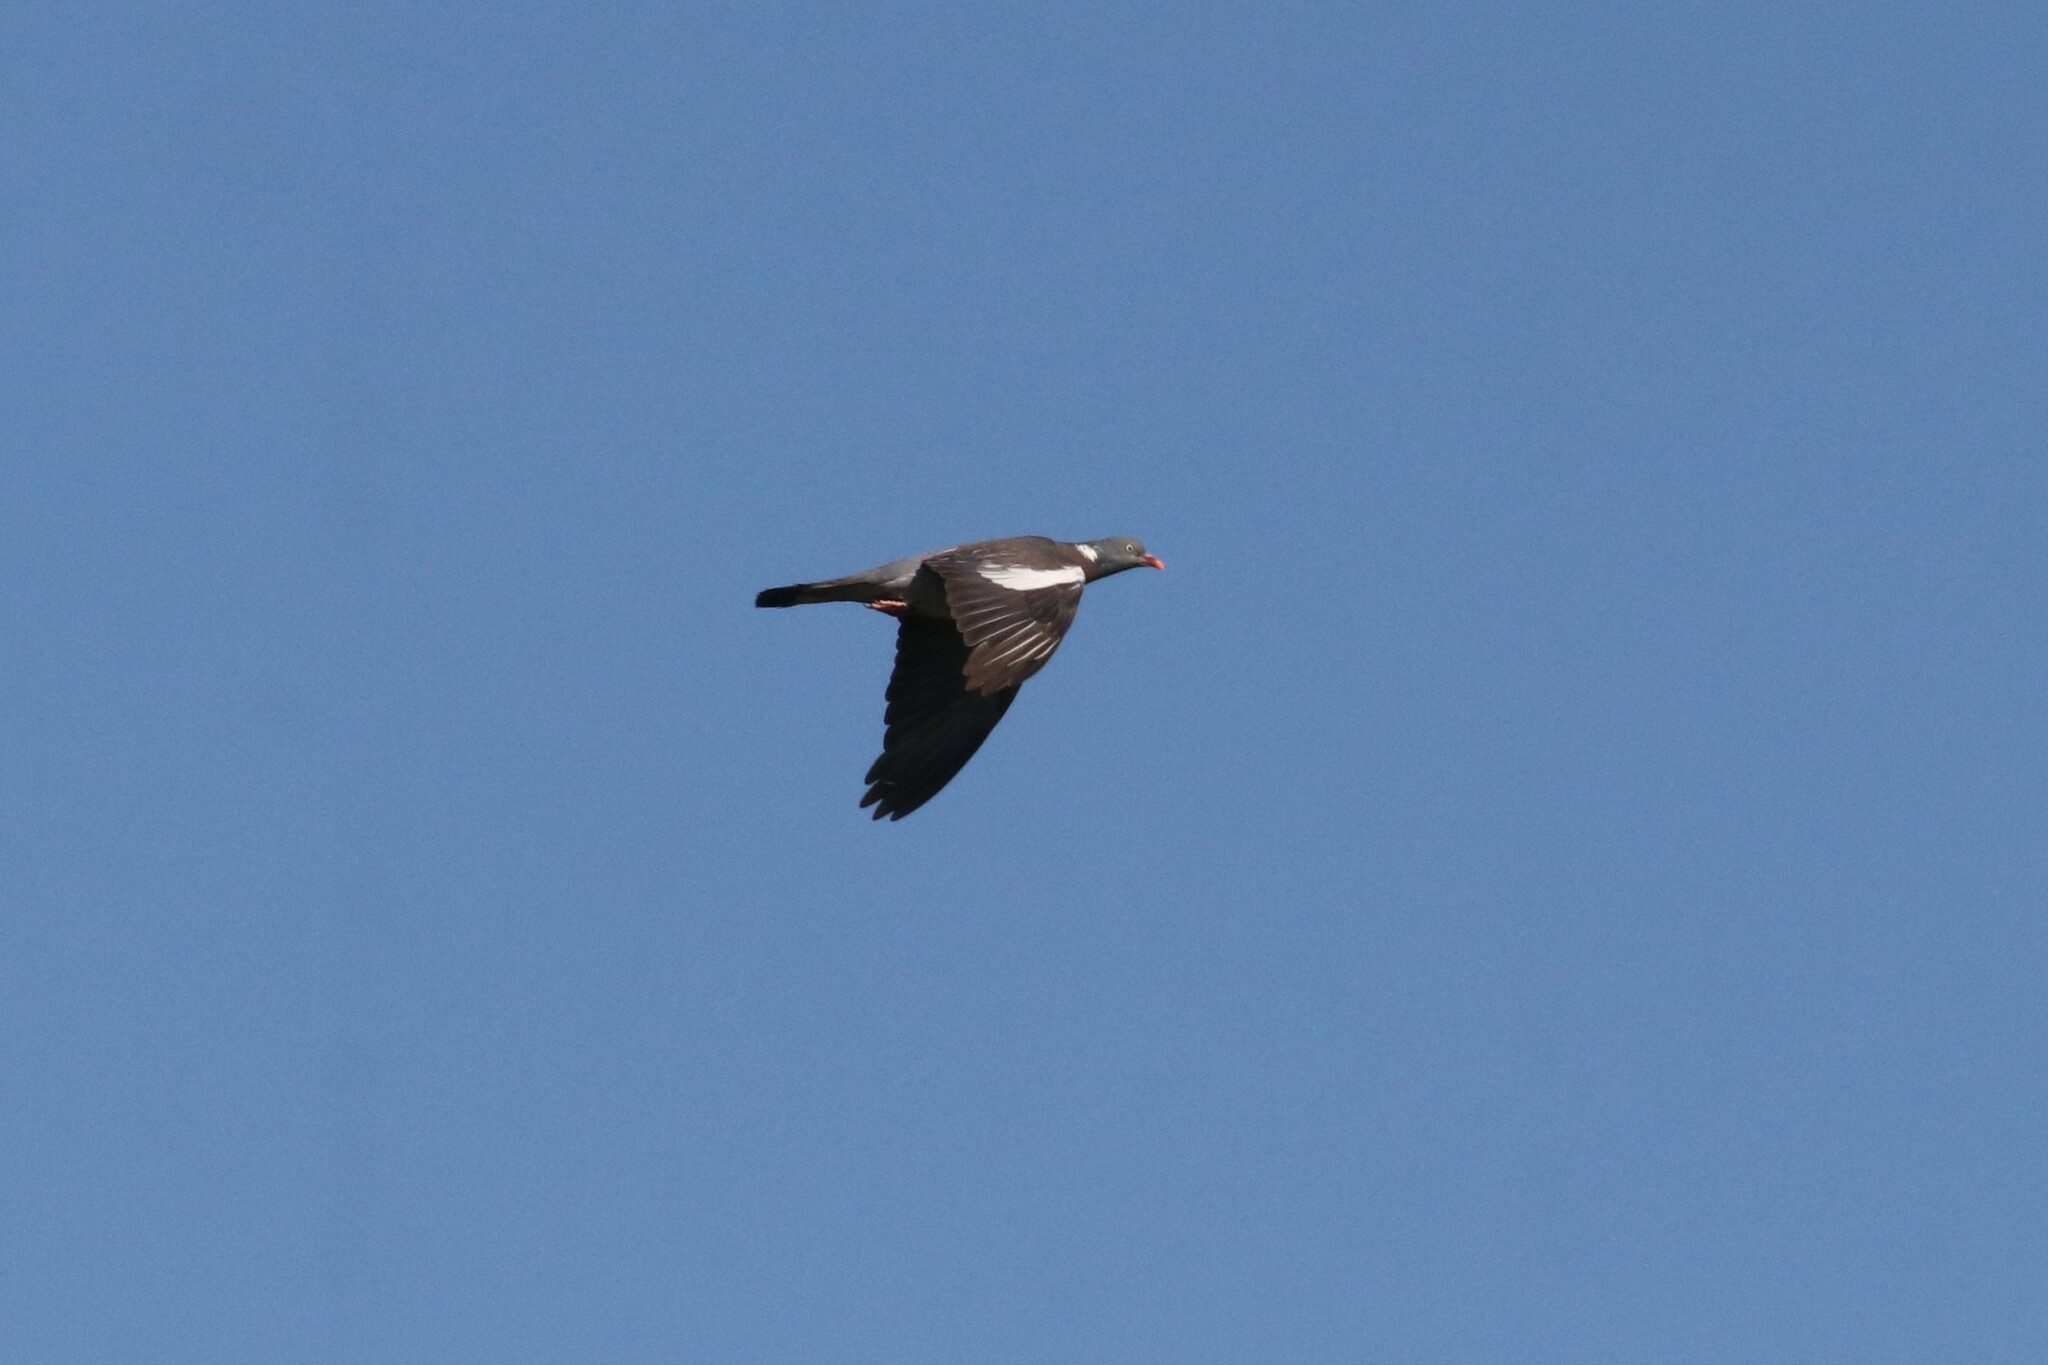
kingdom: Animalia
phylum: Chordata
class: Aves
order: Columbiformes
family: Columbidae
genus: Columba
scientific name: Columba palumbus
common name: Common wood pigeon
